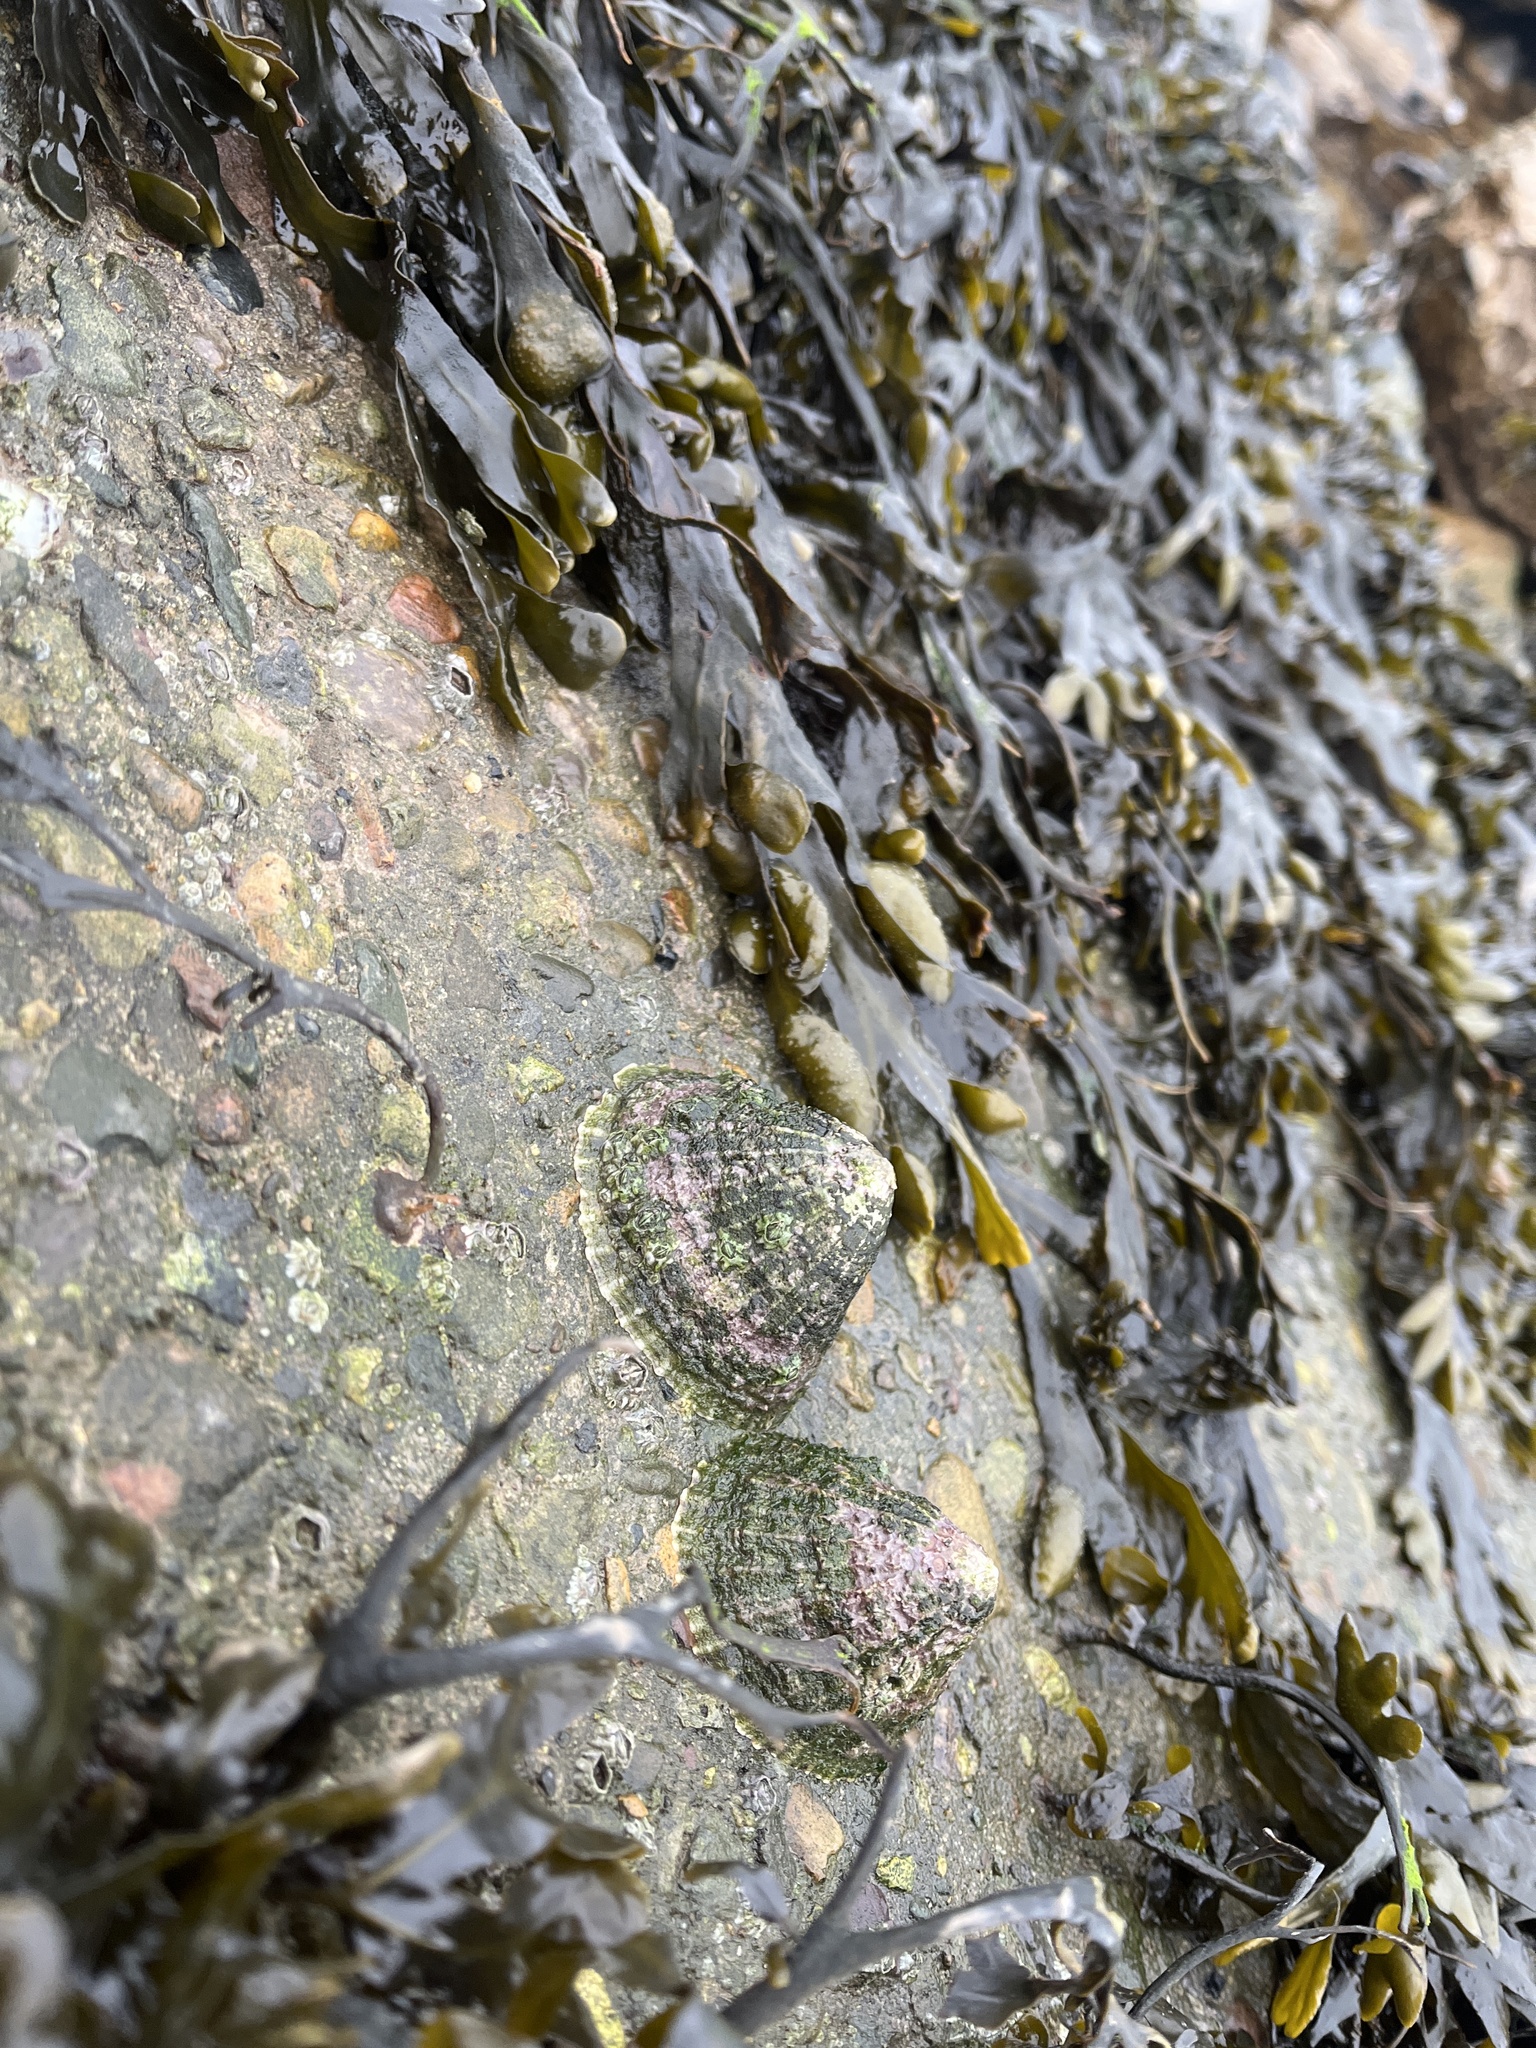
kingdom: Animalia
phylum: Mollusca
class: Gastropoda
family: Patellidae
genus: Patella
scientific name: Patella vulgata
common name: Common limpet
